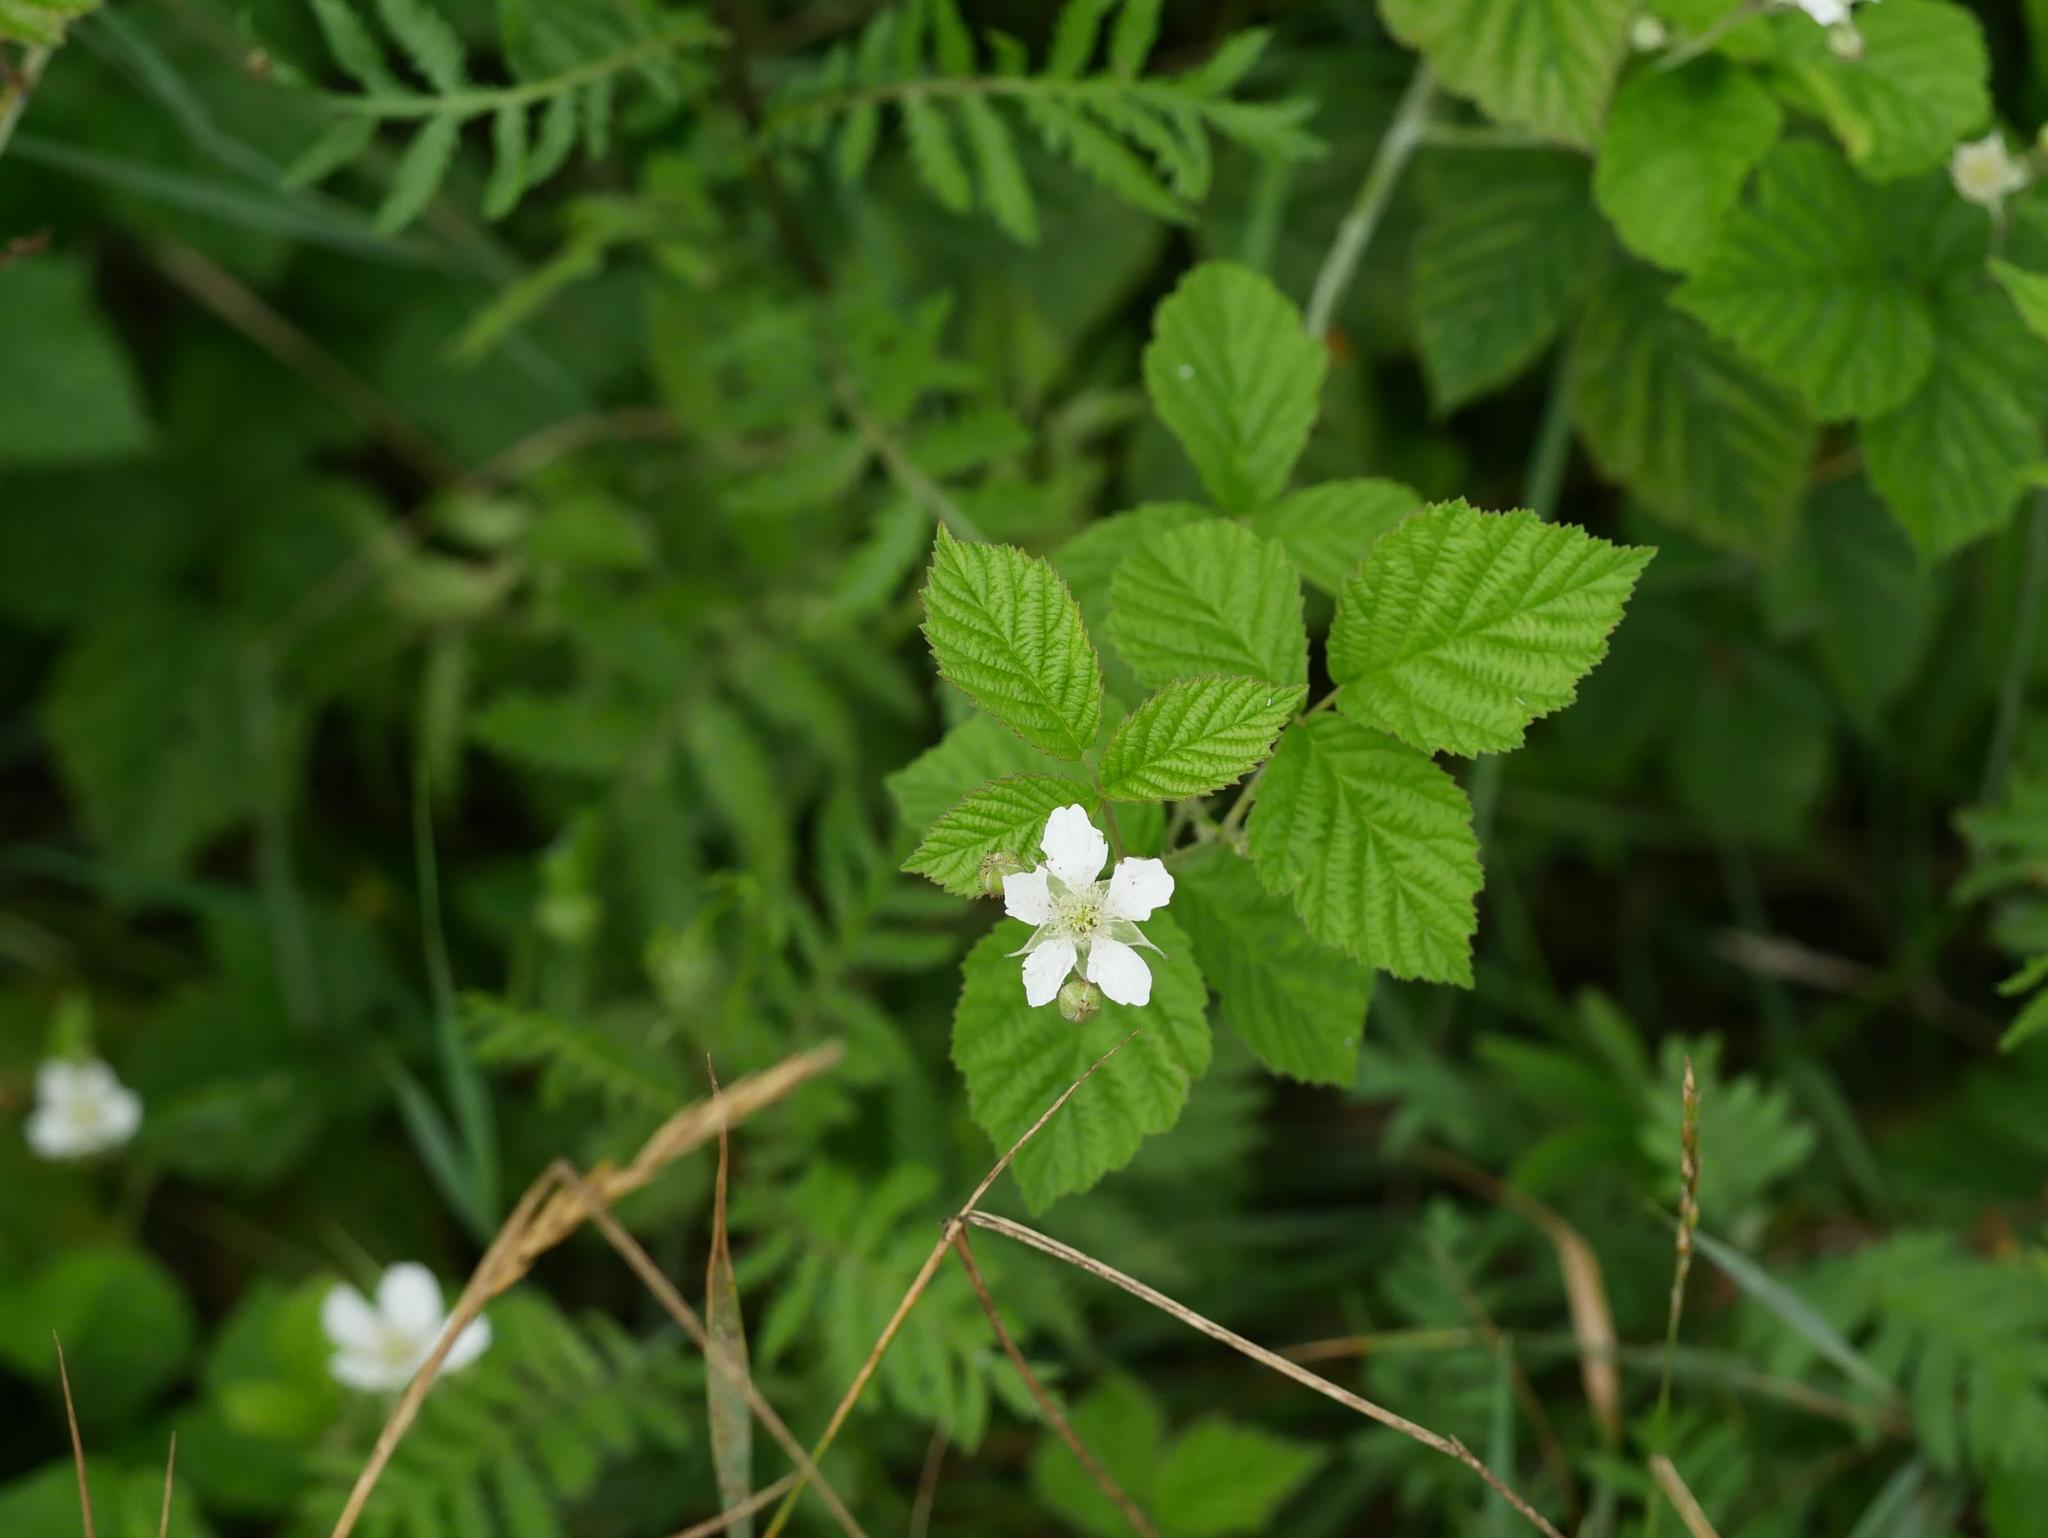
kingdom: Plantae
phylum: Tracheophyta
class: Magnoliopsida
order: Rosales
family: Rosaceae
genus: Rubus
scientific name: Rubus caesius
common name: Dewberry
